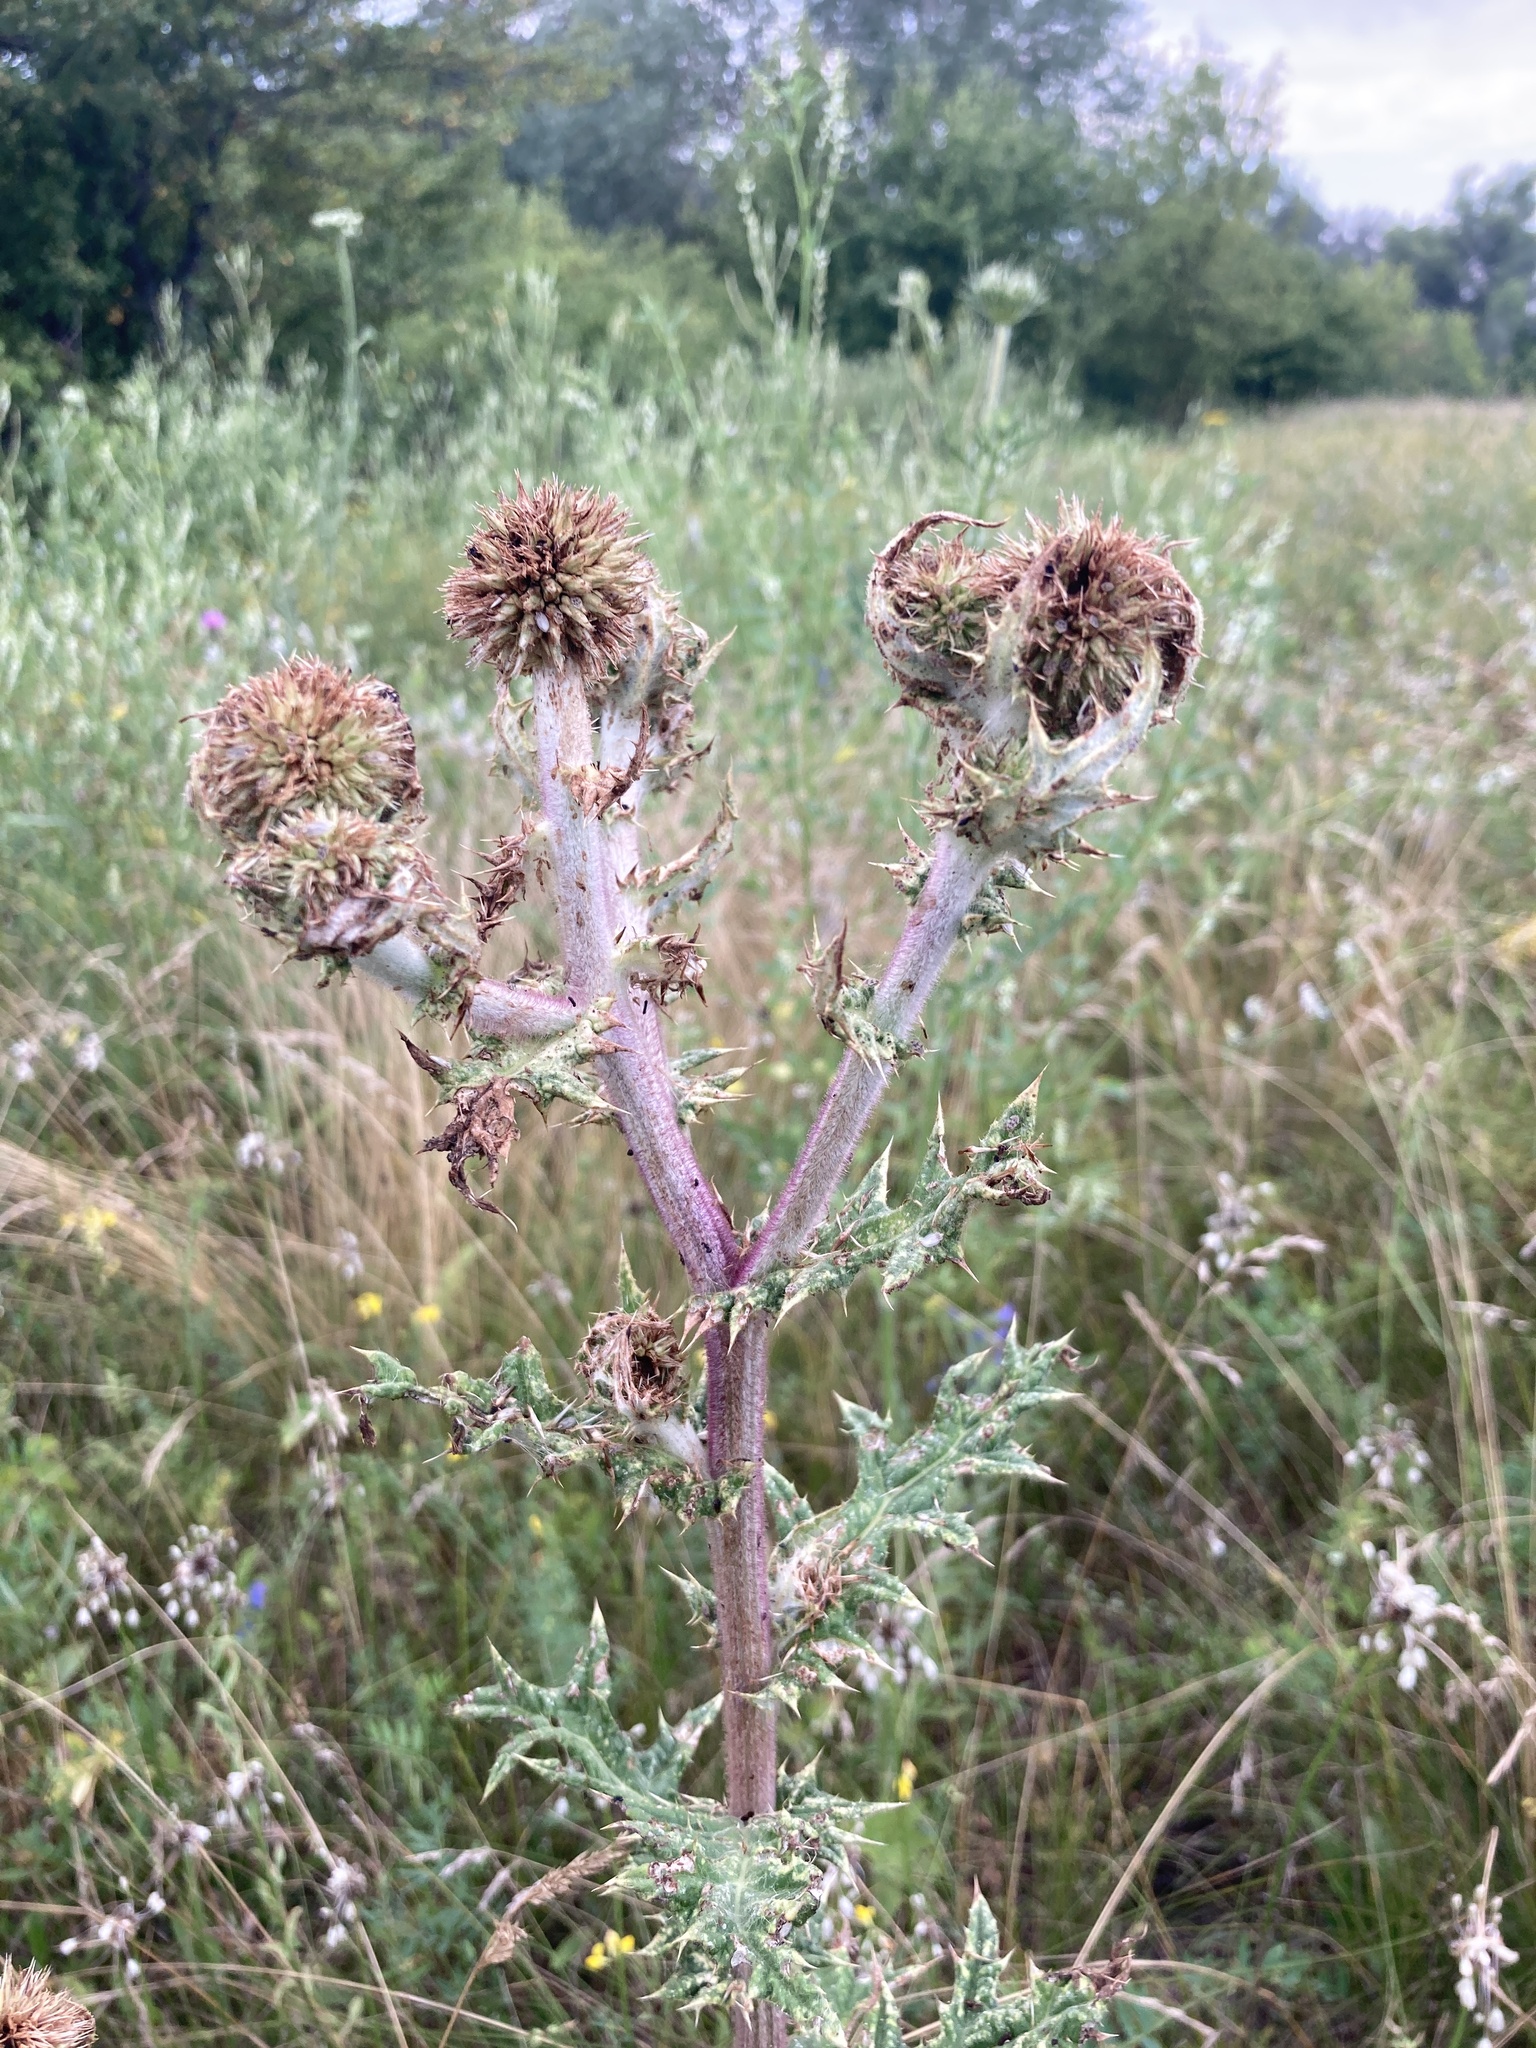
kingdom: Plantae
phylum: Tracheophyta
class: Magnoliopsida
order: Asterales
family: Asteraceae
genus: Echinops
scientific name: Echinops sphaerocephalus
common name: Glandular globe-thistle
